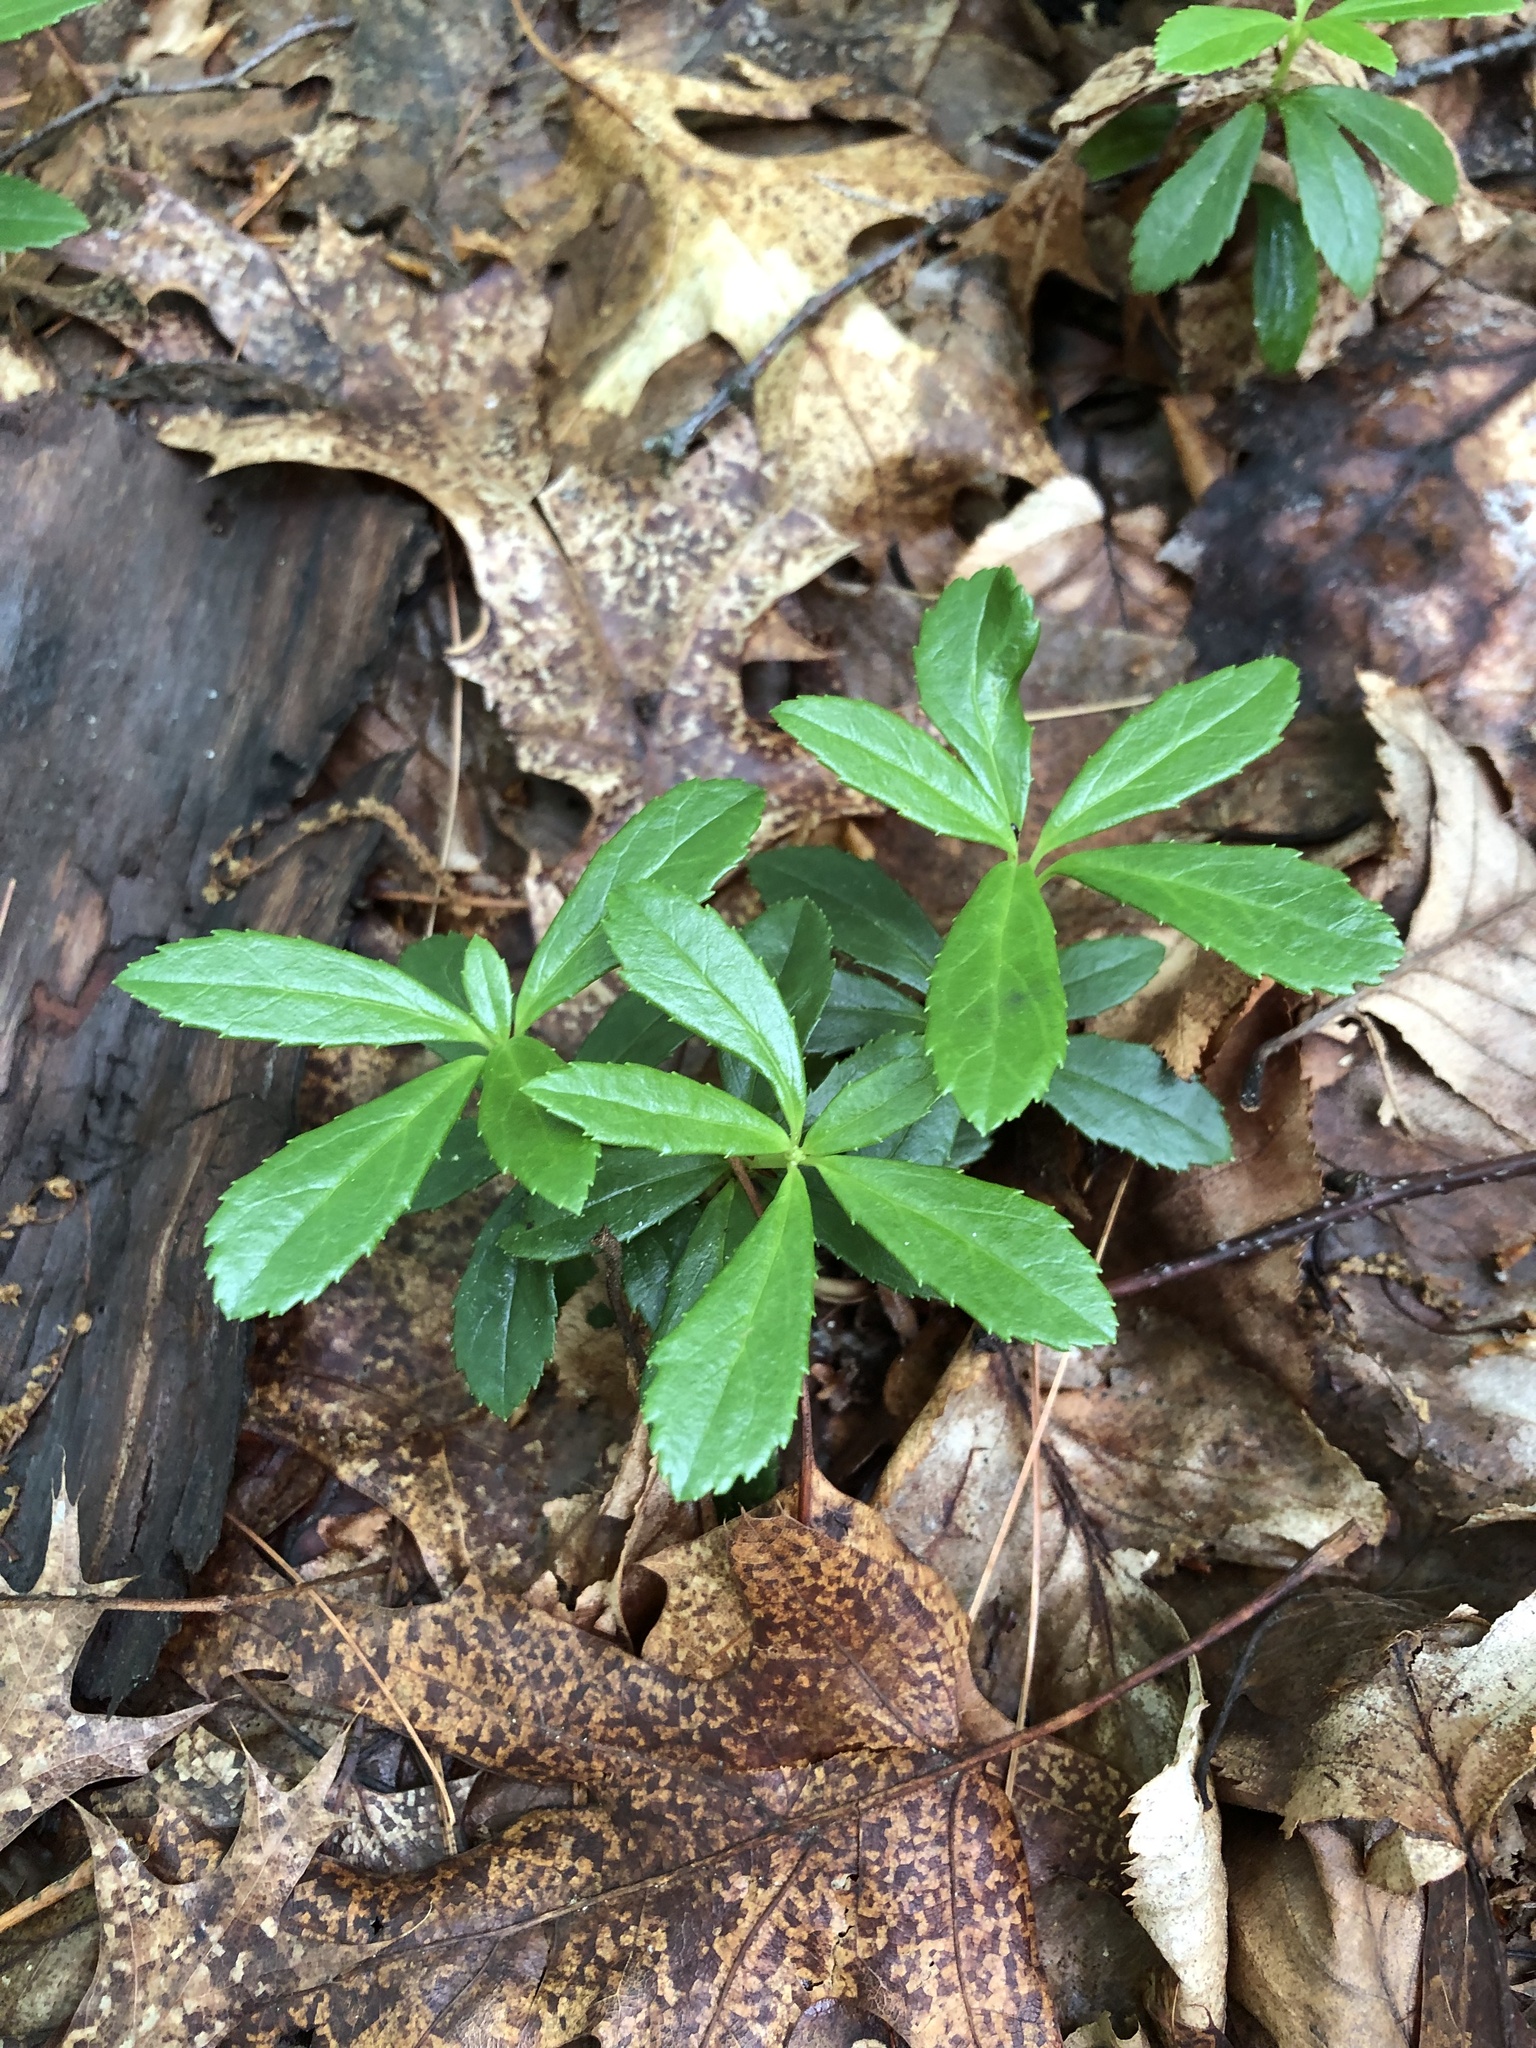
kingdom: Plantae
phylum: Tracheophyta
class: Magnoliopsida
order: Ericales
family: Ericaceae
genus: Chimaphila
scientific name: Chimaphila umbellata
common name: Pipsissewa
